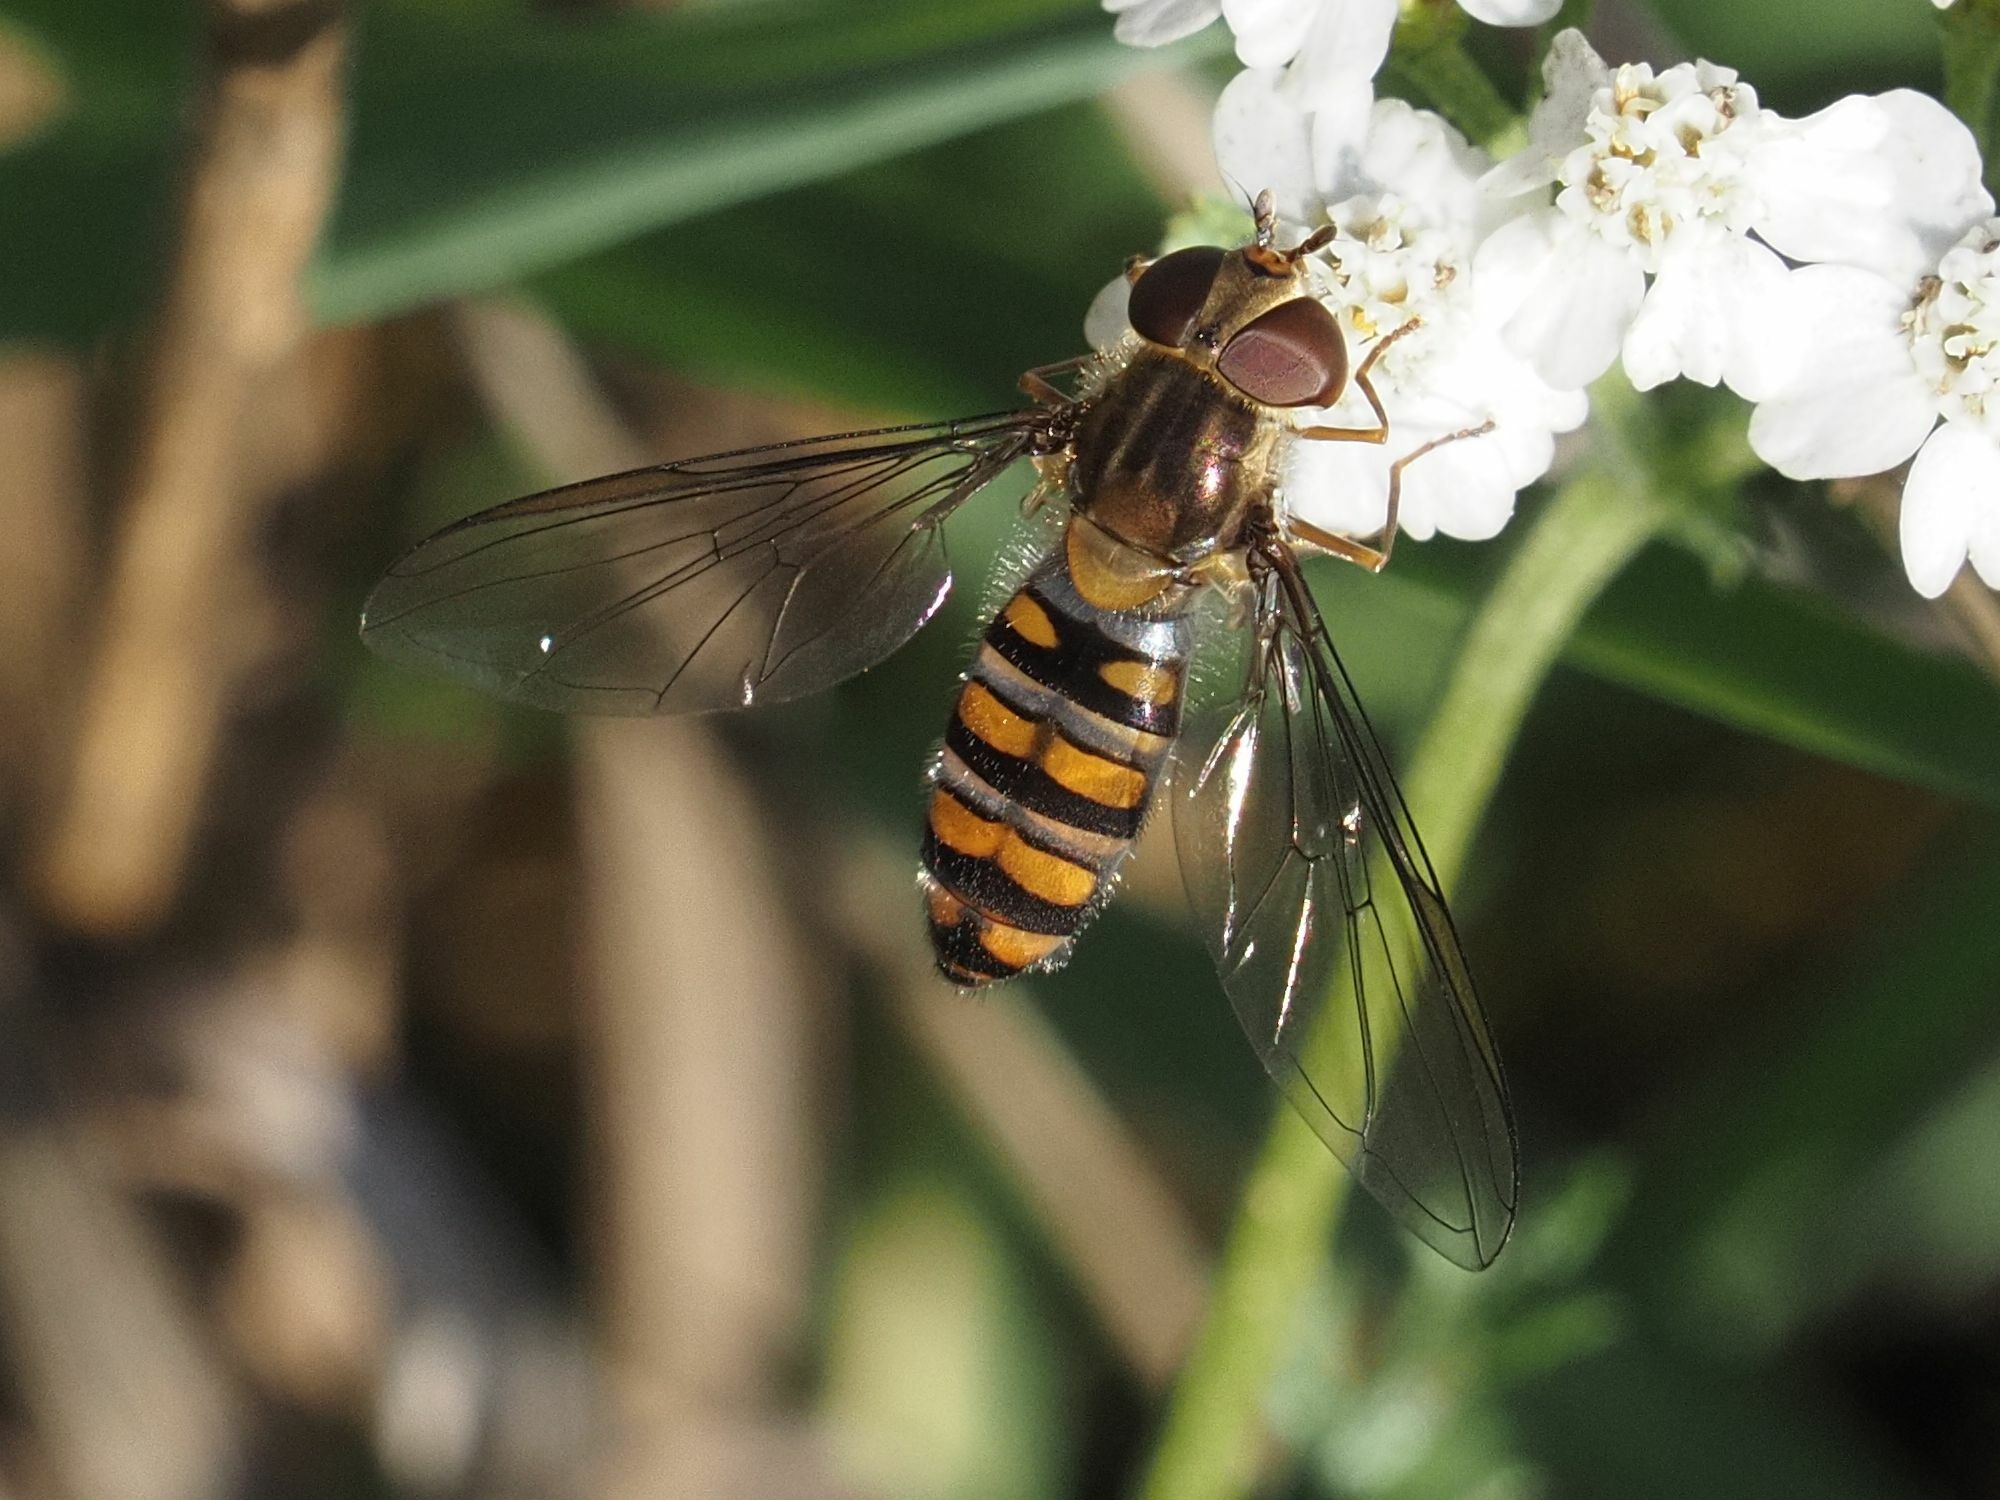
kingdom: Animalia
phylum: Arthropoda
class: Insecta
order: Diptera
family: Syrphidae
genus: Episyrphus
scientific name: Episyrphus balteatus
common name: Marmalade hoverfly
